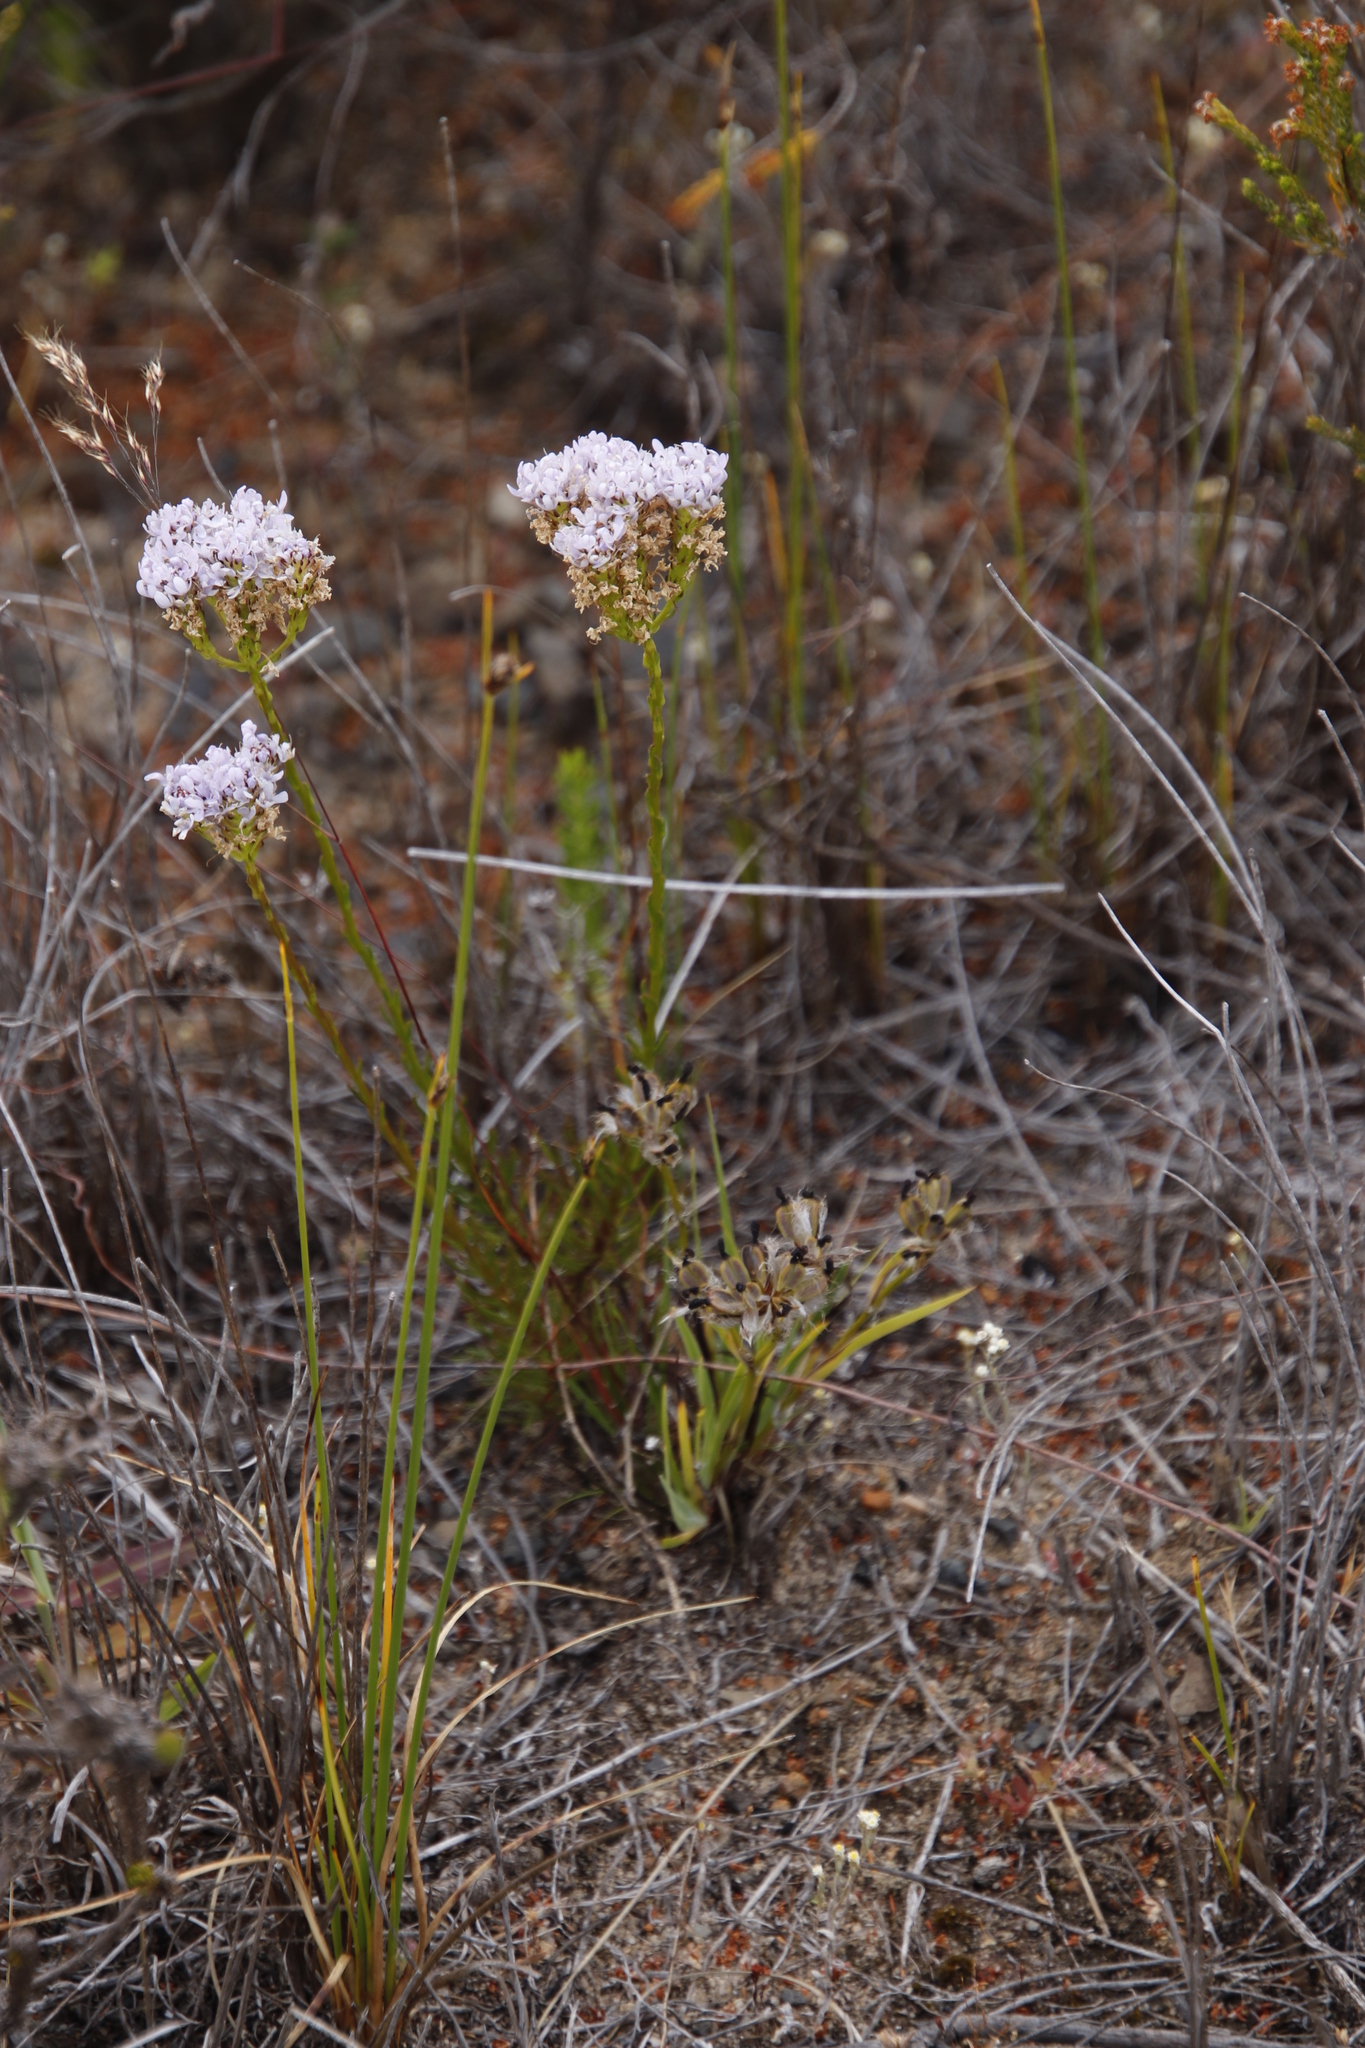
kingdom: Plantae
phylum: Tracheophyta
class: Magnoliopsida
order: Lamiales
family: Scrophulariaceae
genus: Pseudoselago
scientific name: Pseudoselago spuria
